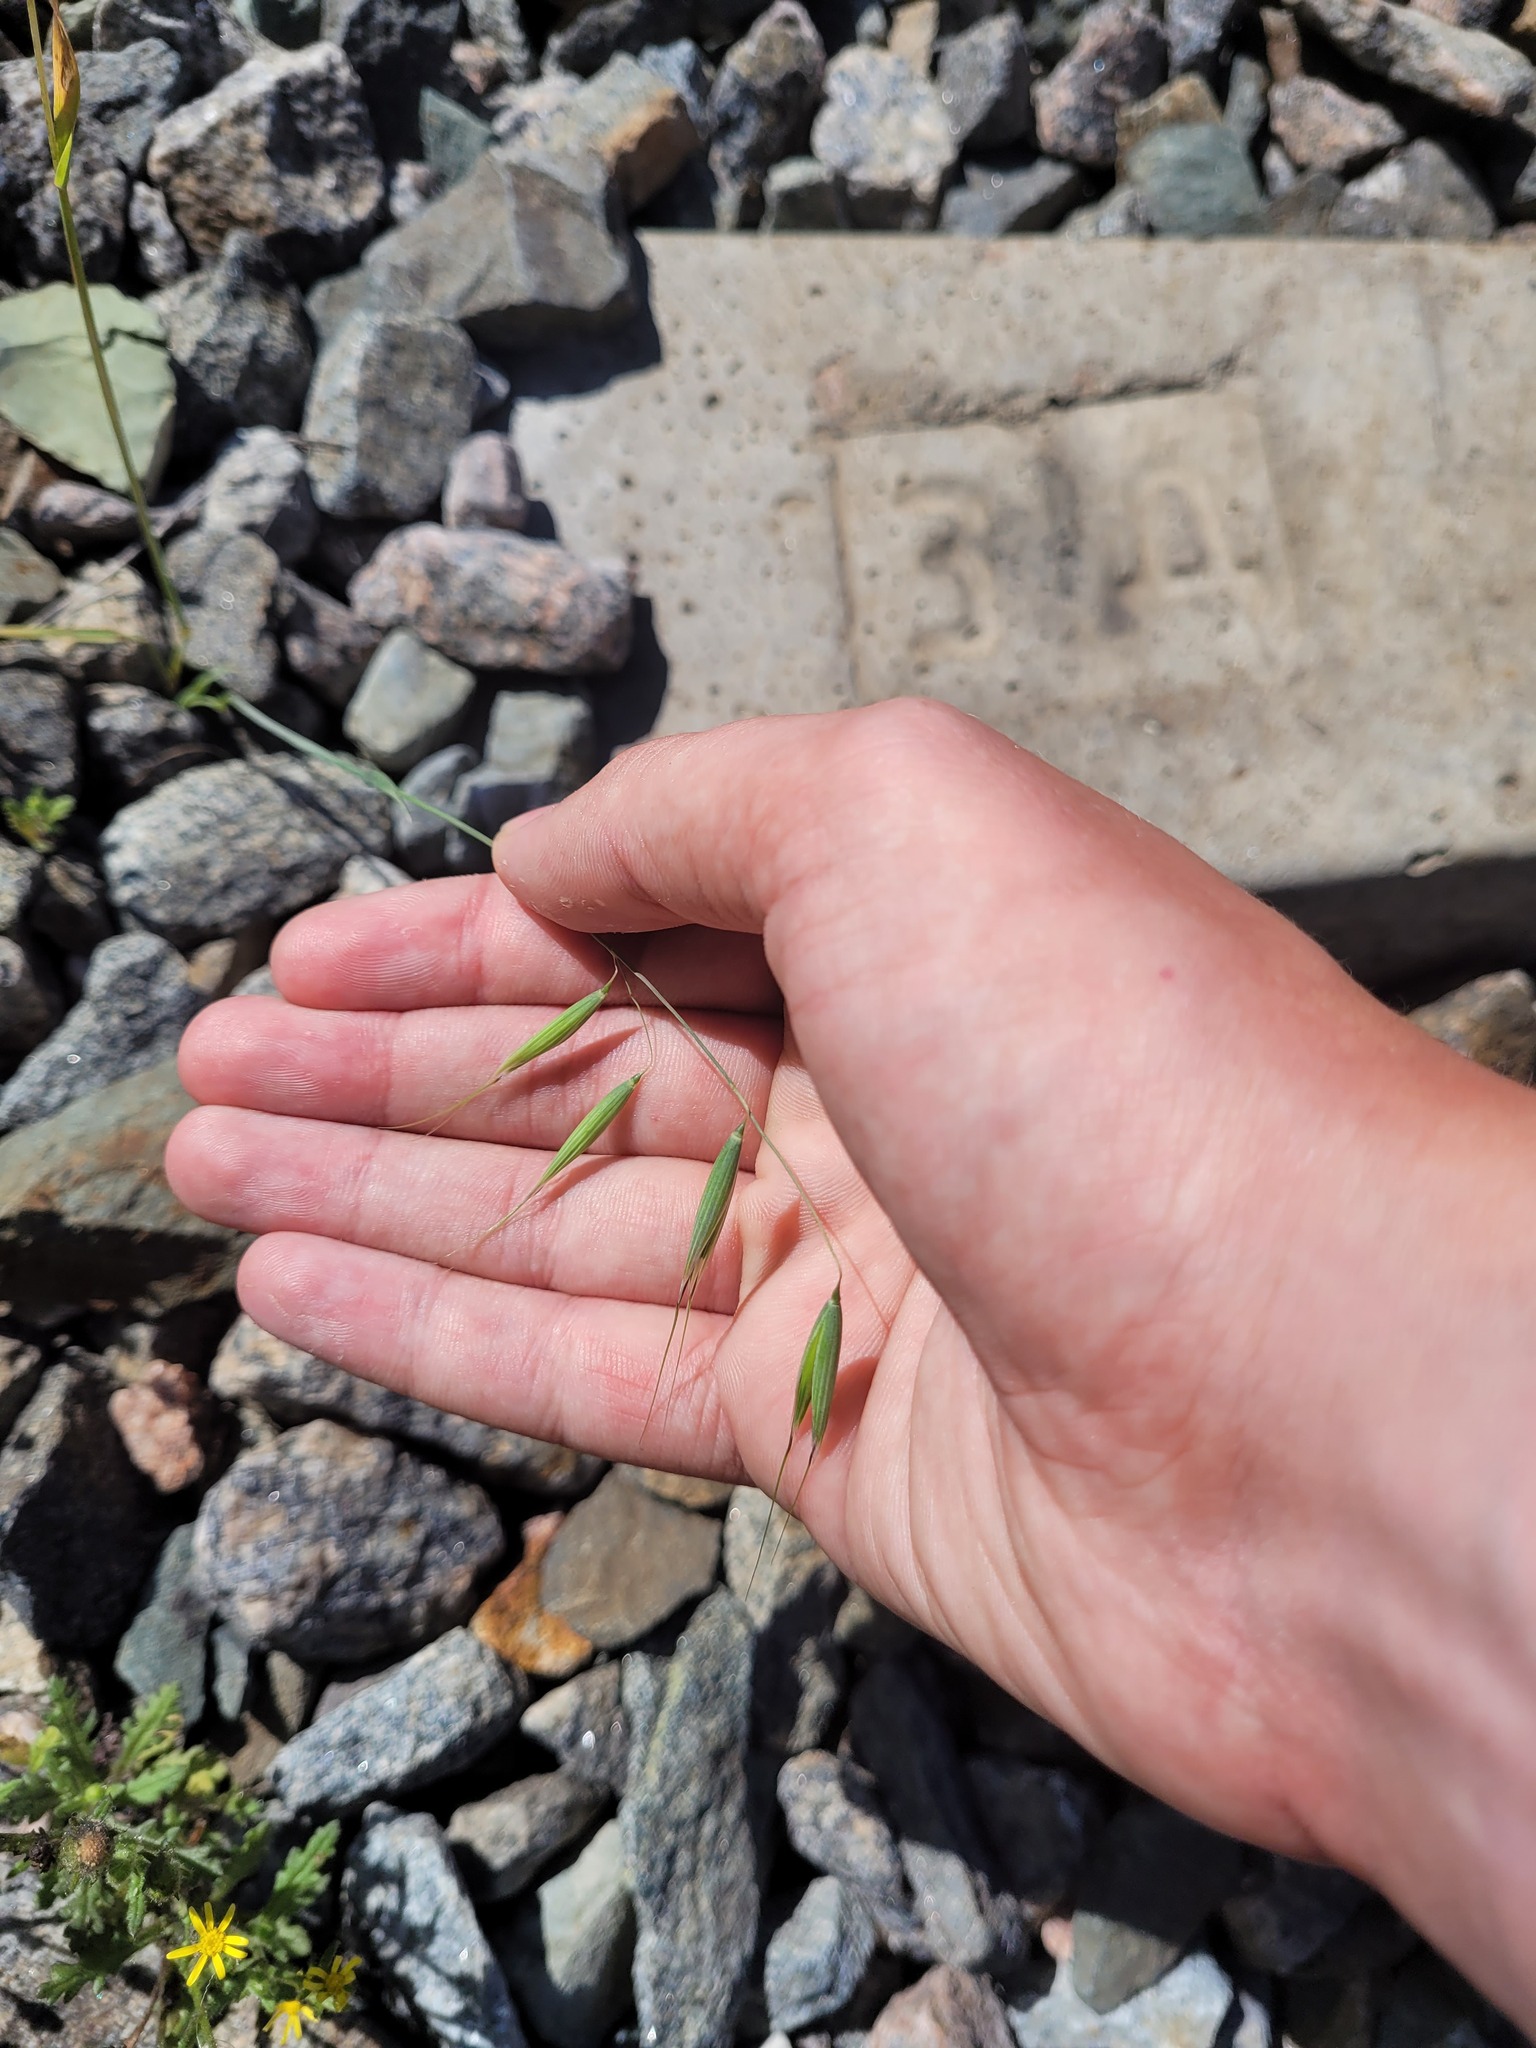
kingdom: Plantae
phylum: Tracheophyta
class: Liliopsida
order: Poales
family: Poaceae
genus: Avena
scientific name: Avena fatua
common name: Wild oat
